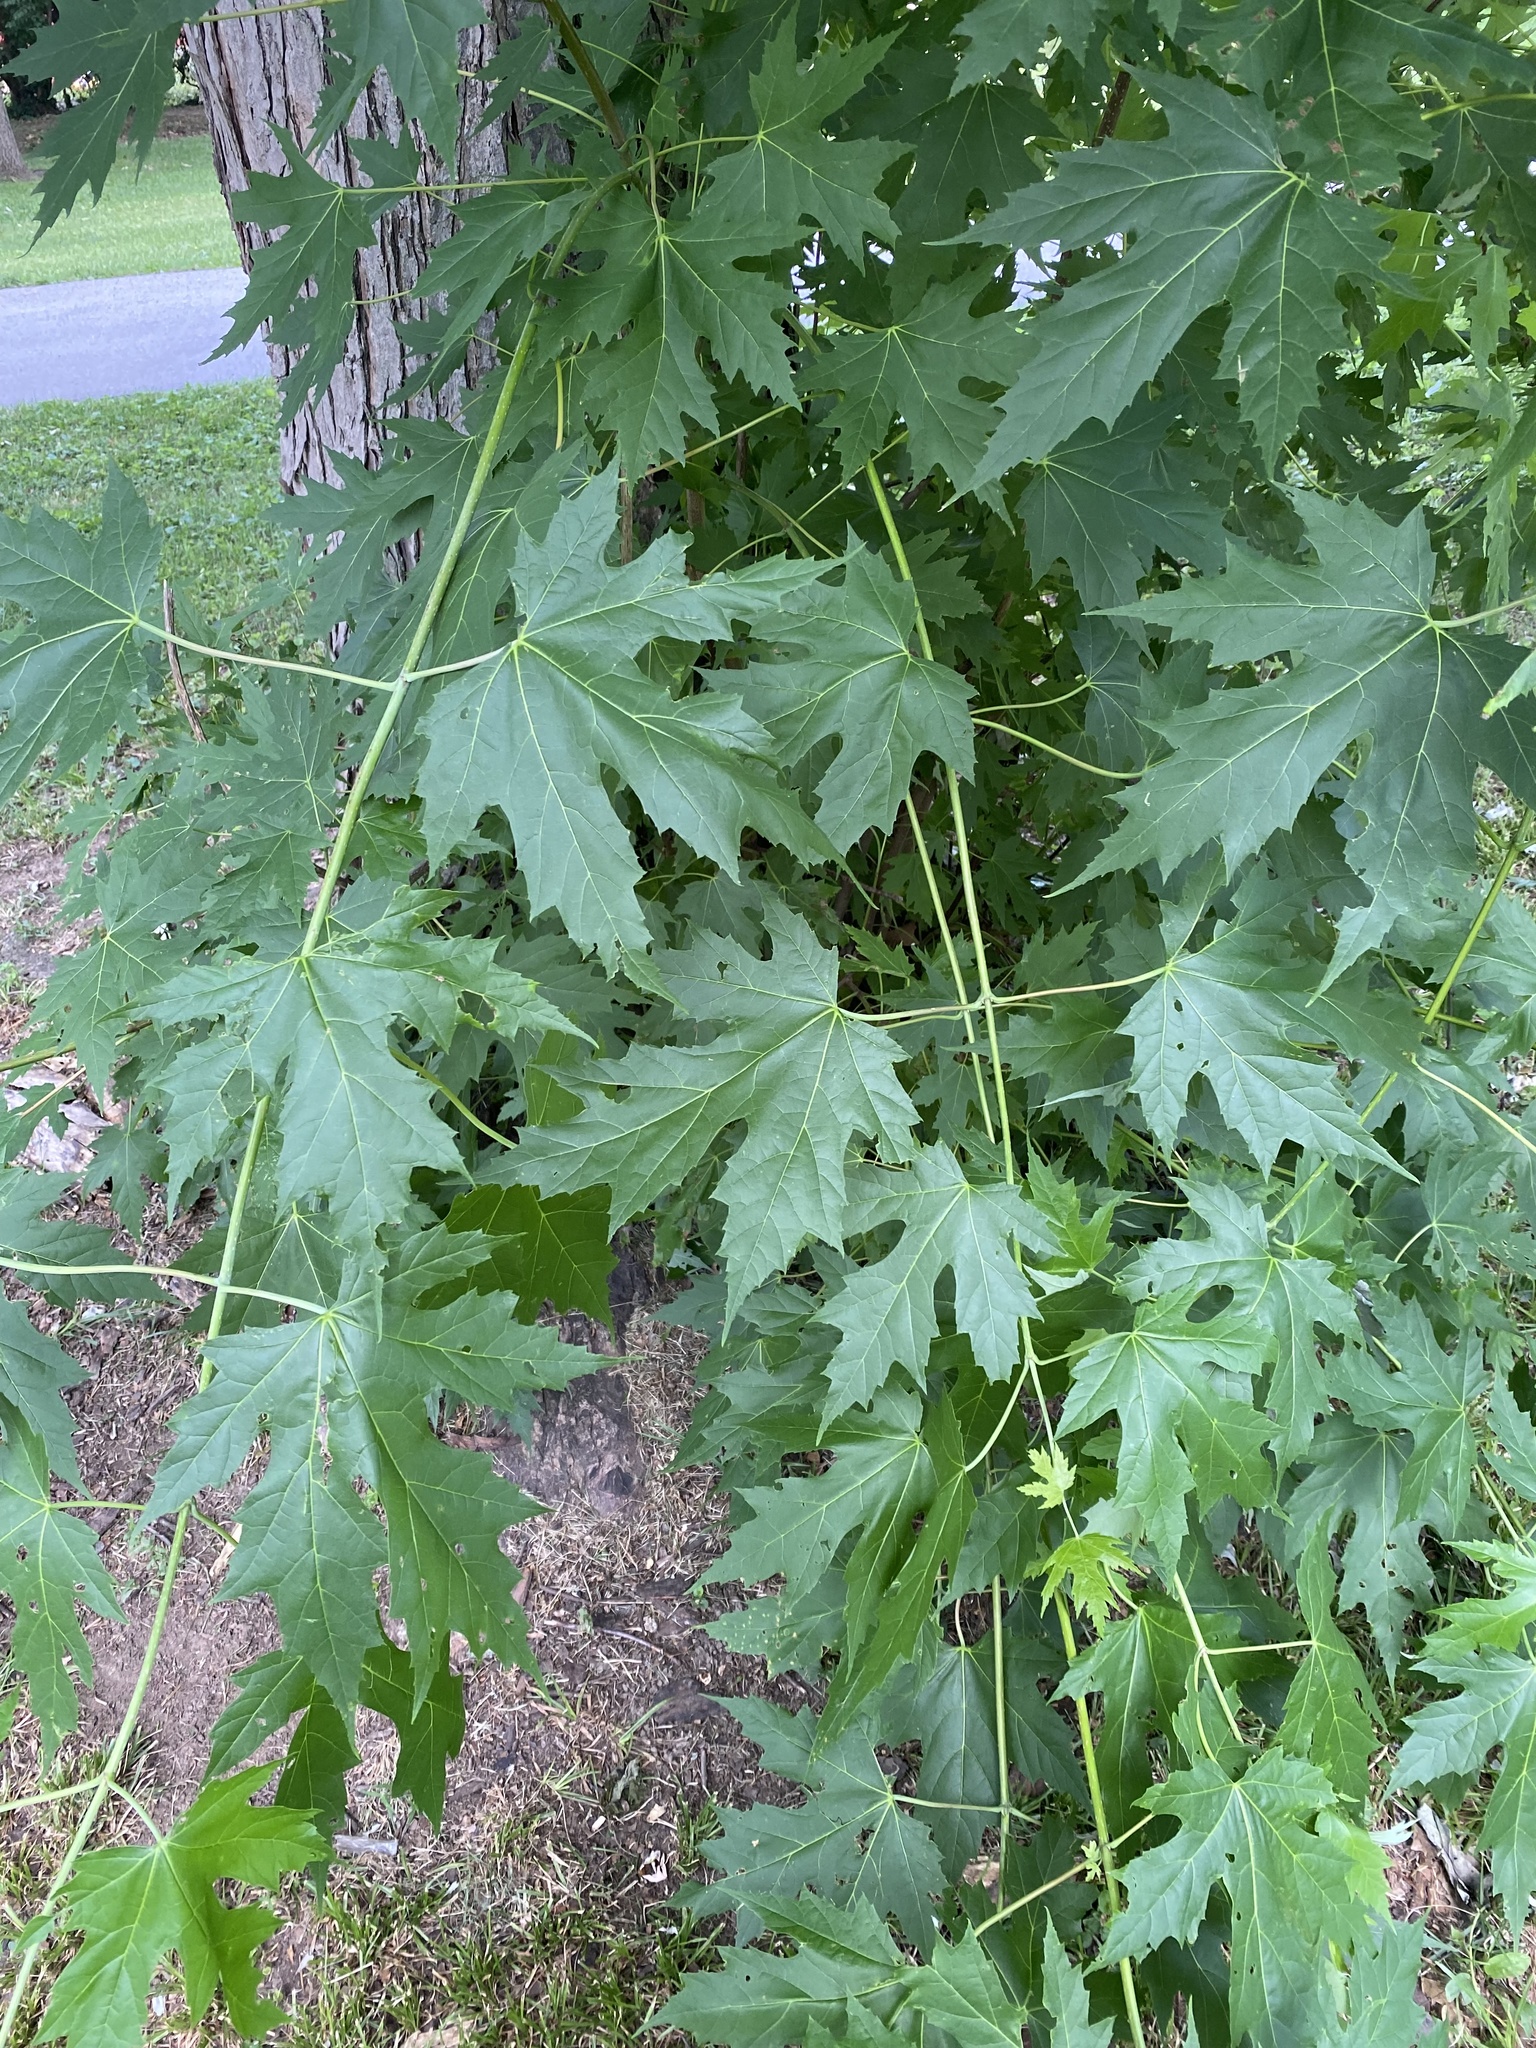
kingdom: Plantae
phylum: Tracheophyta
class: Magnoliopsida
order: Sapindales
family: Sapindaceae
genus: Acer
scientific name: Acer saccharinum
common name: Silver maple
